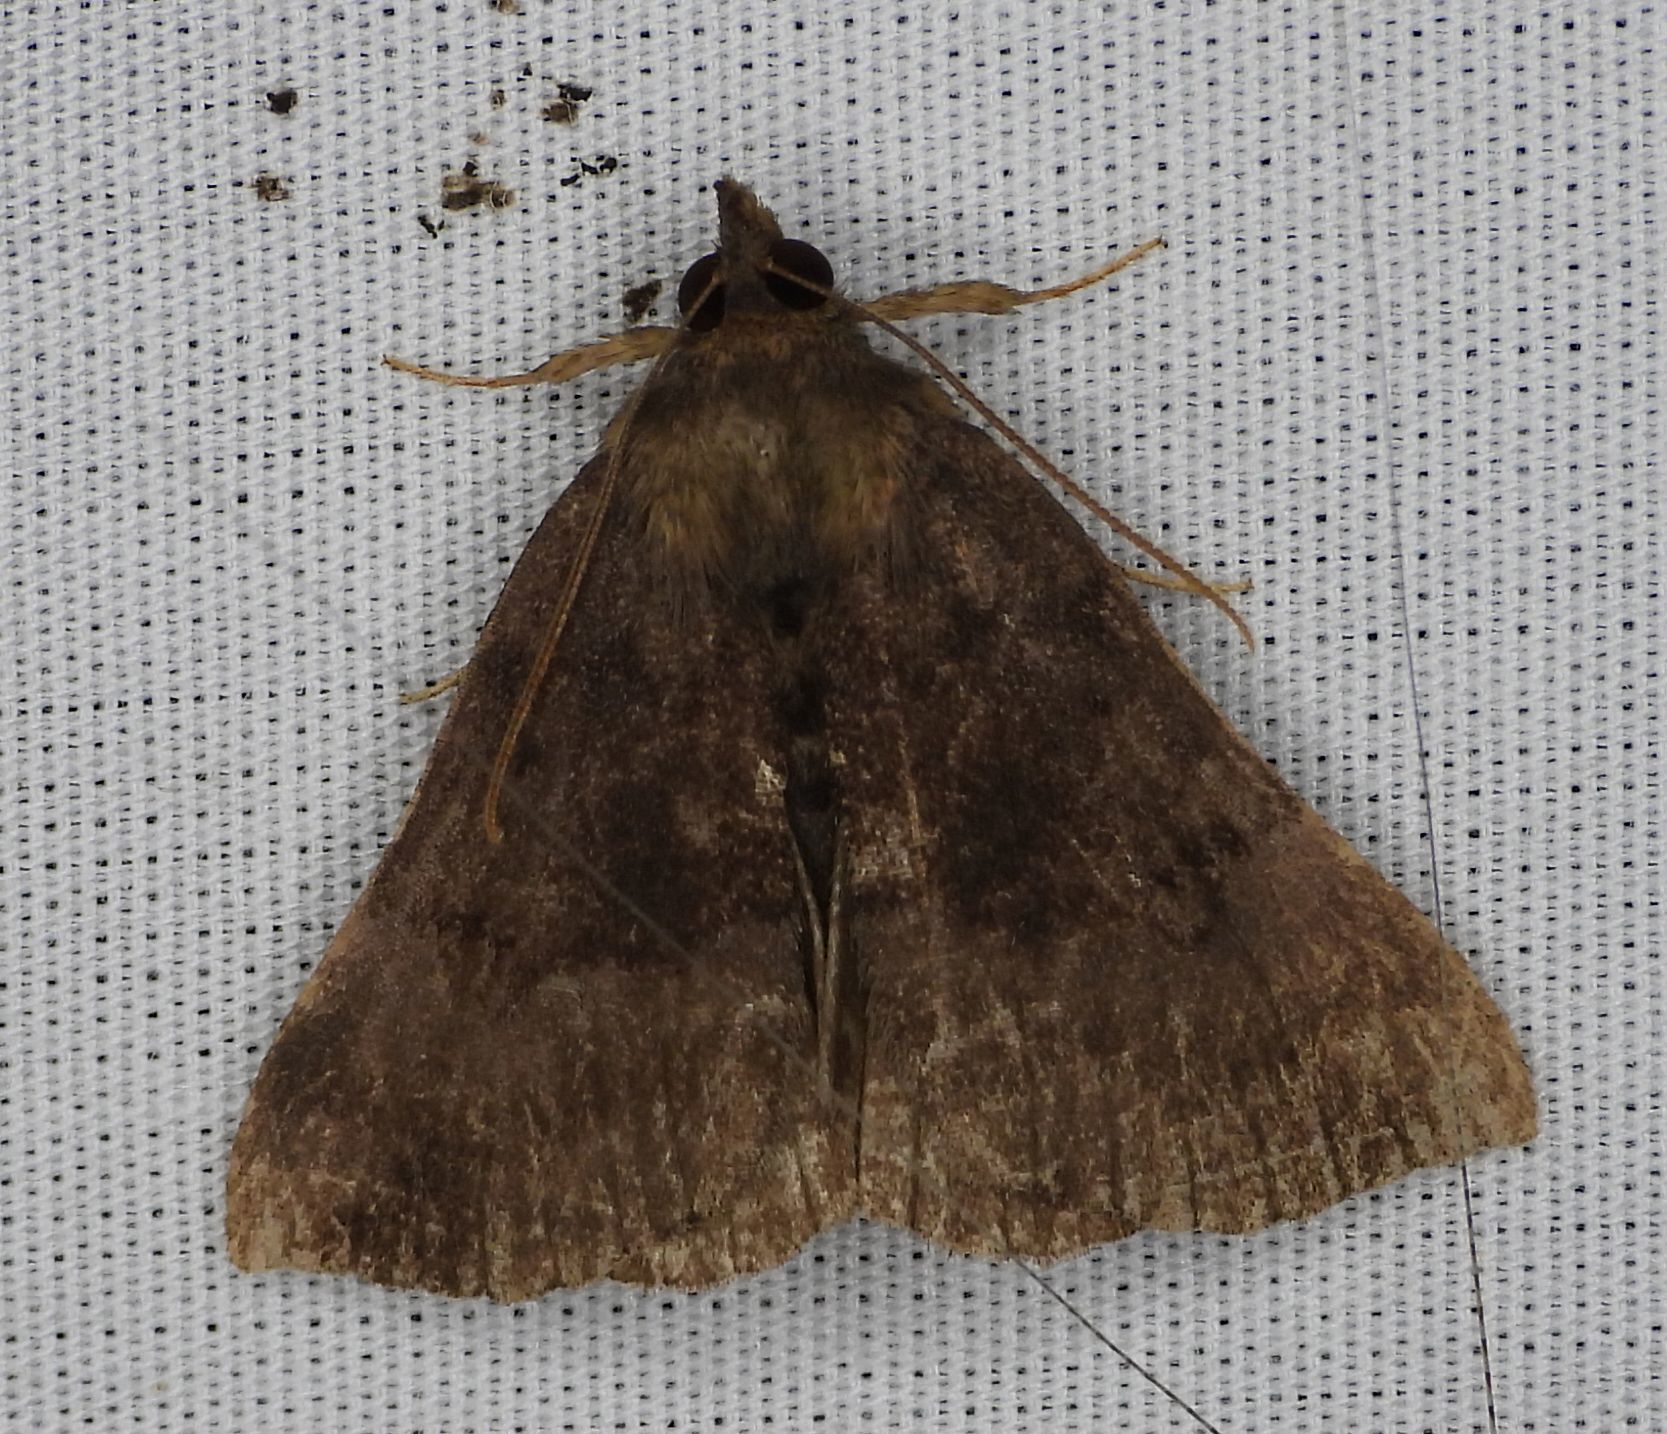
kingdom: Animalia
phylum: Arthropoda
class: Insecta
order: Lepidoptera
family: Erebidae
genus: Hypena
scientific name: Hypena madefactalis
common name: Gray-edged snout
